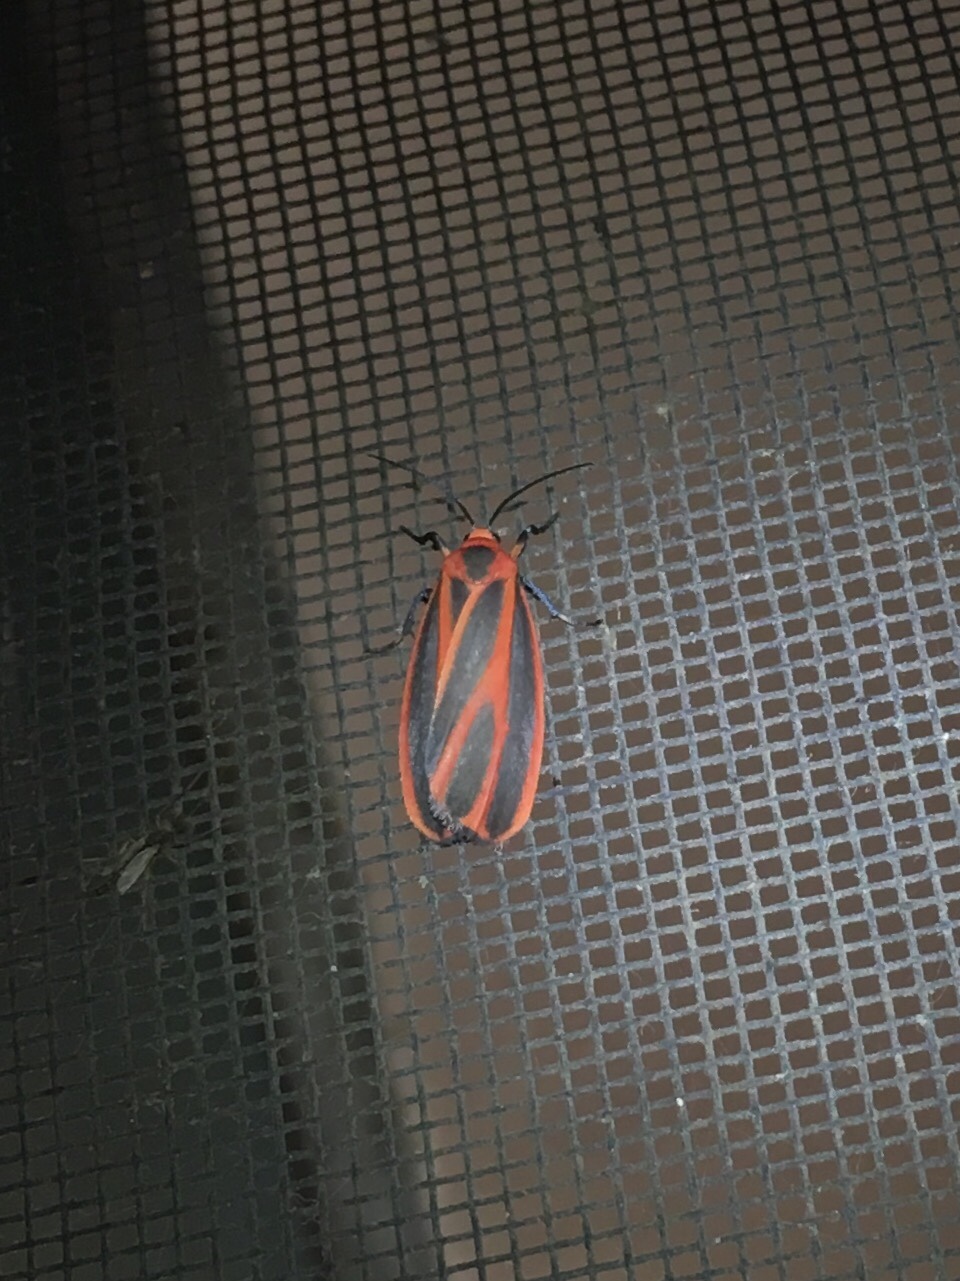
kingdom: Animalia
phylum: Arthropoda
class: Insecta
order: Lepidoptera
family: Erebidae
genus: Hypoprepia
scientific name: Hypoprepia miniata
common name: Scarlet-winged lichen moth
